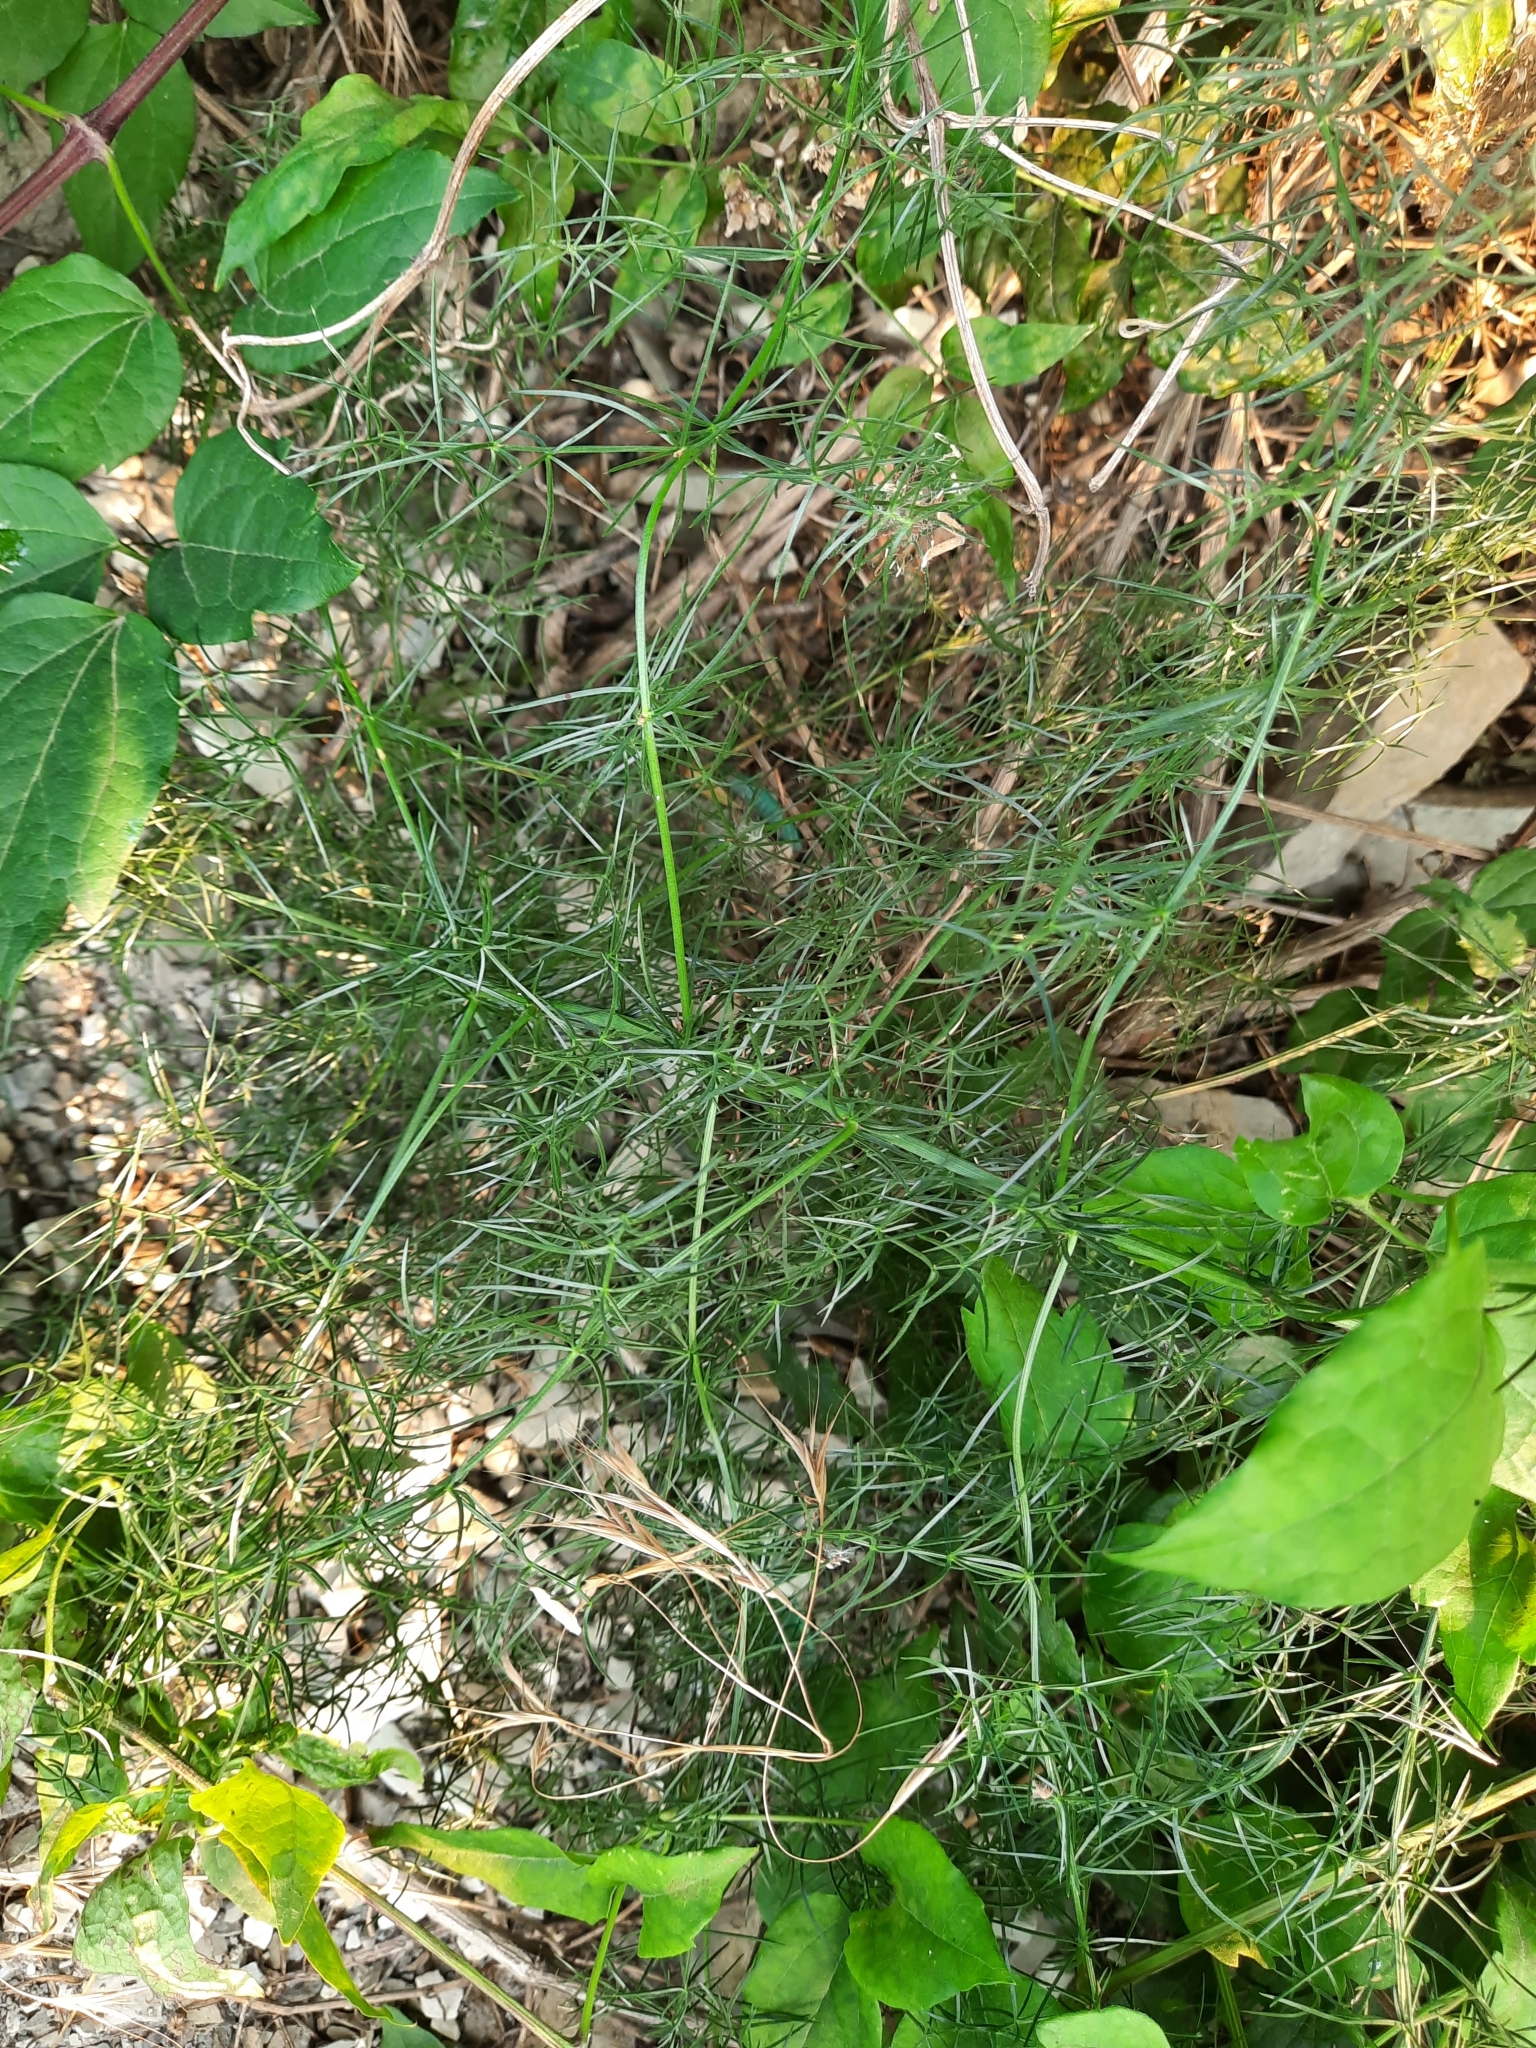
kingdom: Plantae
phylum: Tracheophyta
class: Liliopsida
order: Asparagales
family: Asparagaceae
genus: Asparagus
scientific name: Asparagus verticillatus
